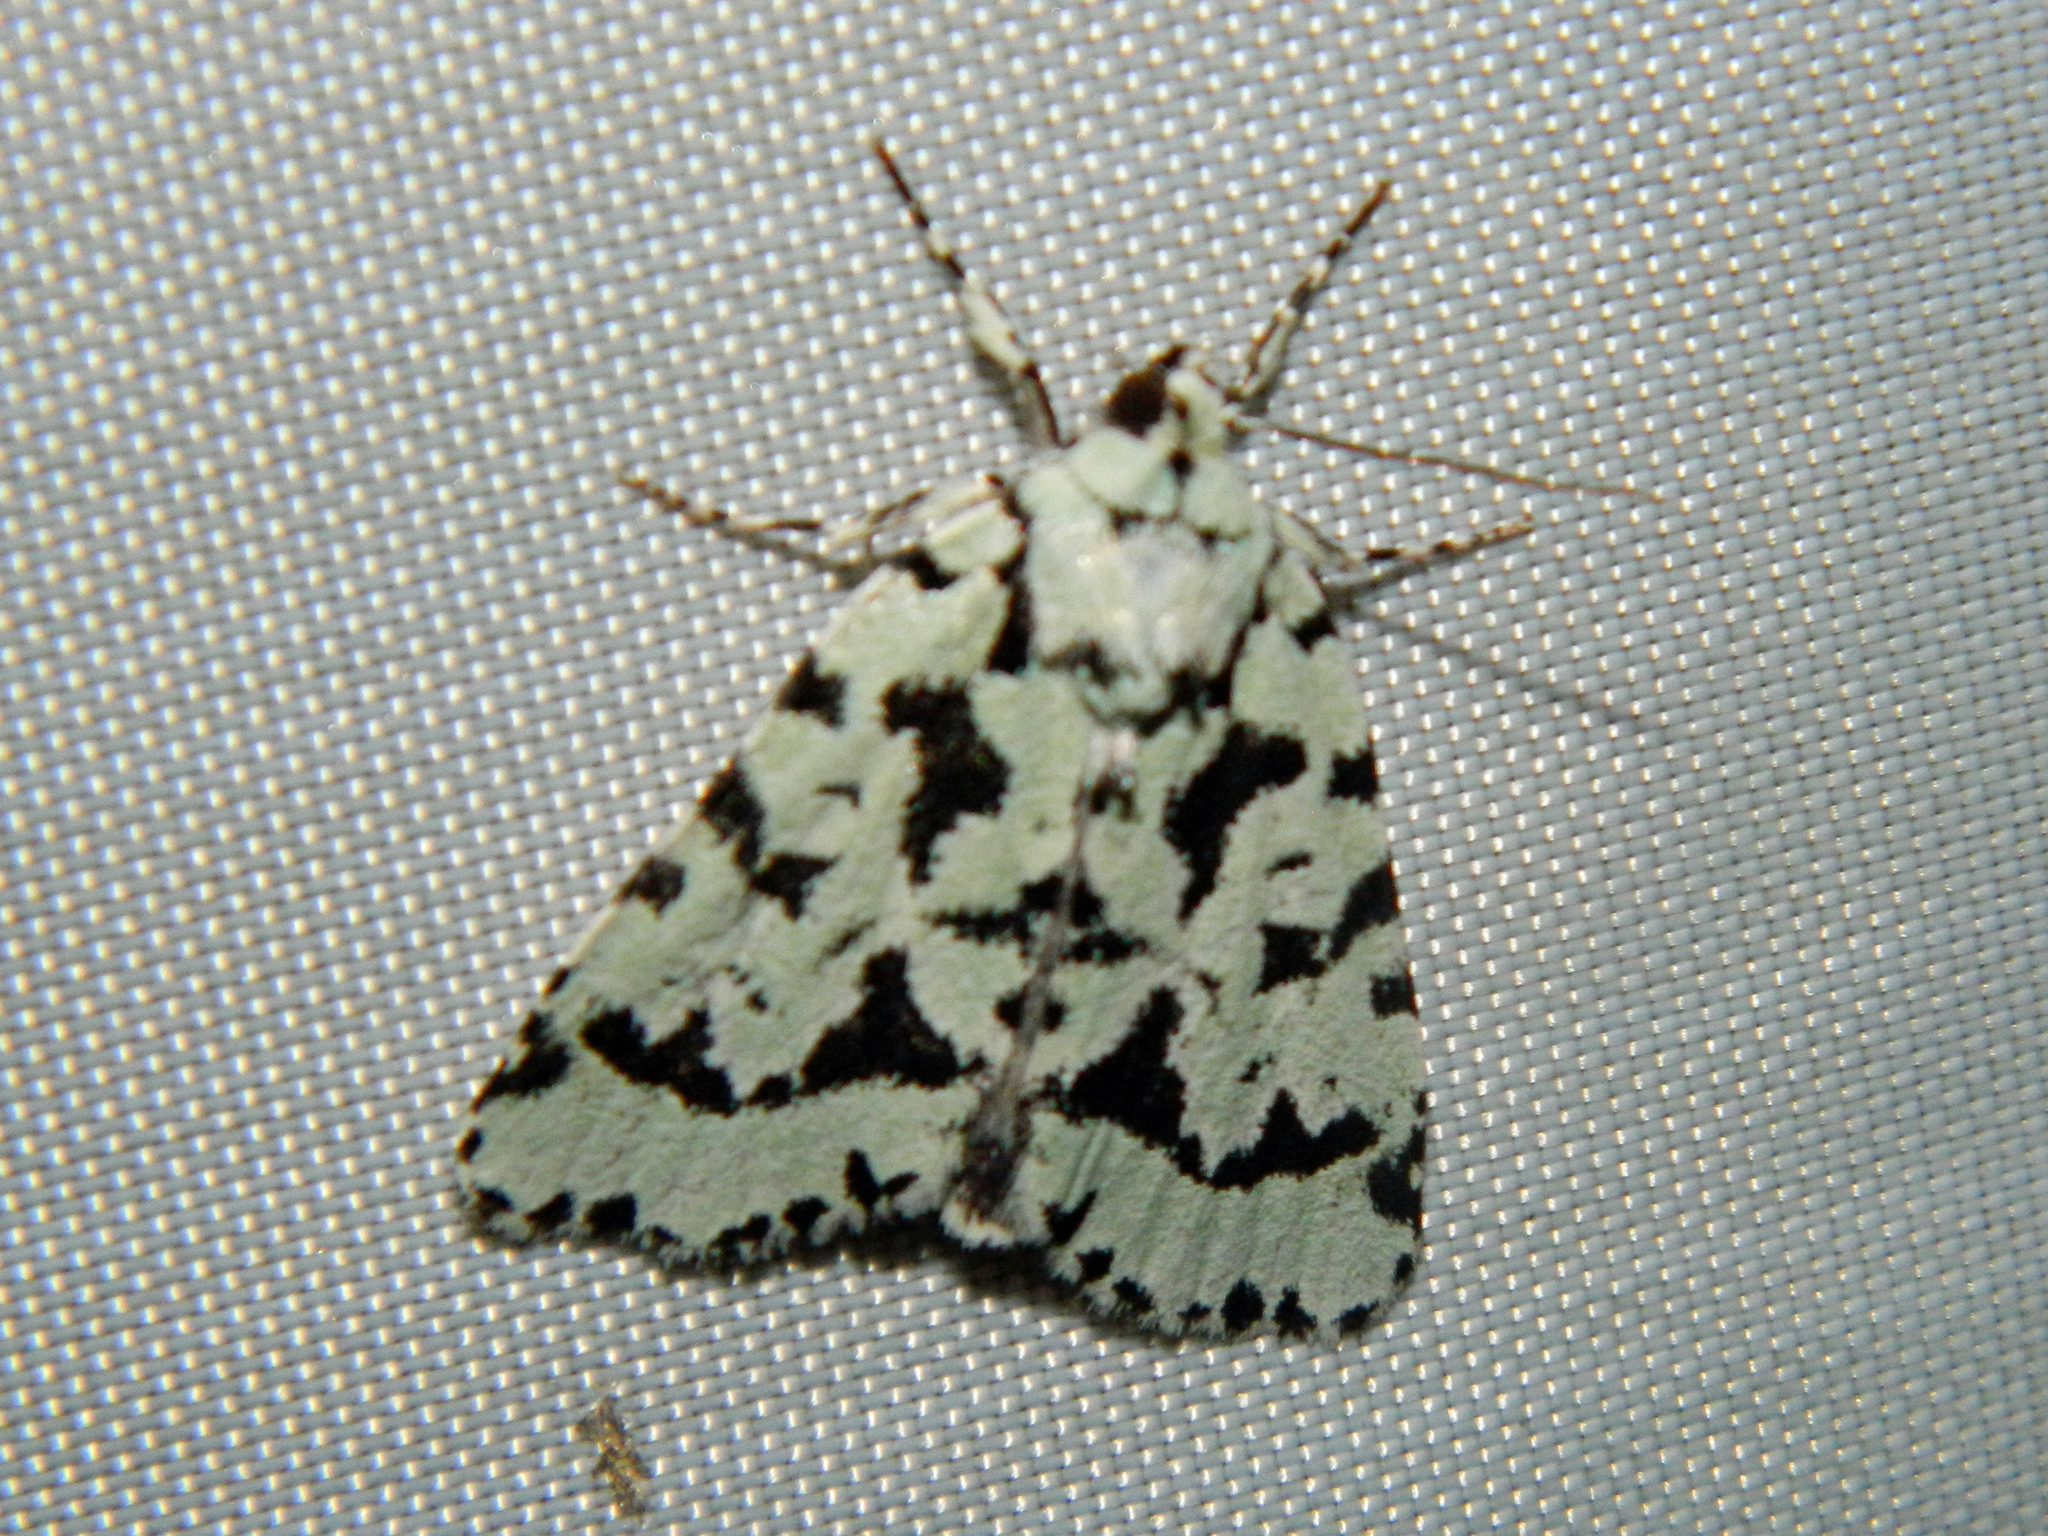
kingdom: Animalia
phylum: Arthropoda
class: Insecta
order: Lepidoptera
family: Noctuidae
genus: Acronicta
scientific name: Acronicta fallax
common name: Green marvel
